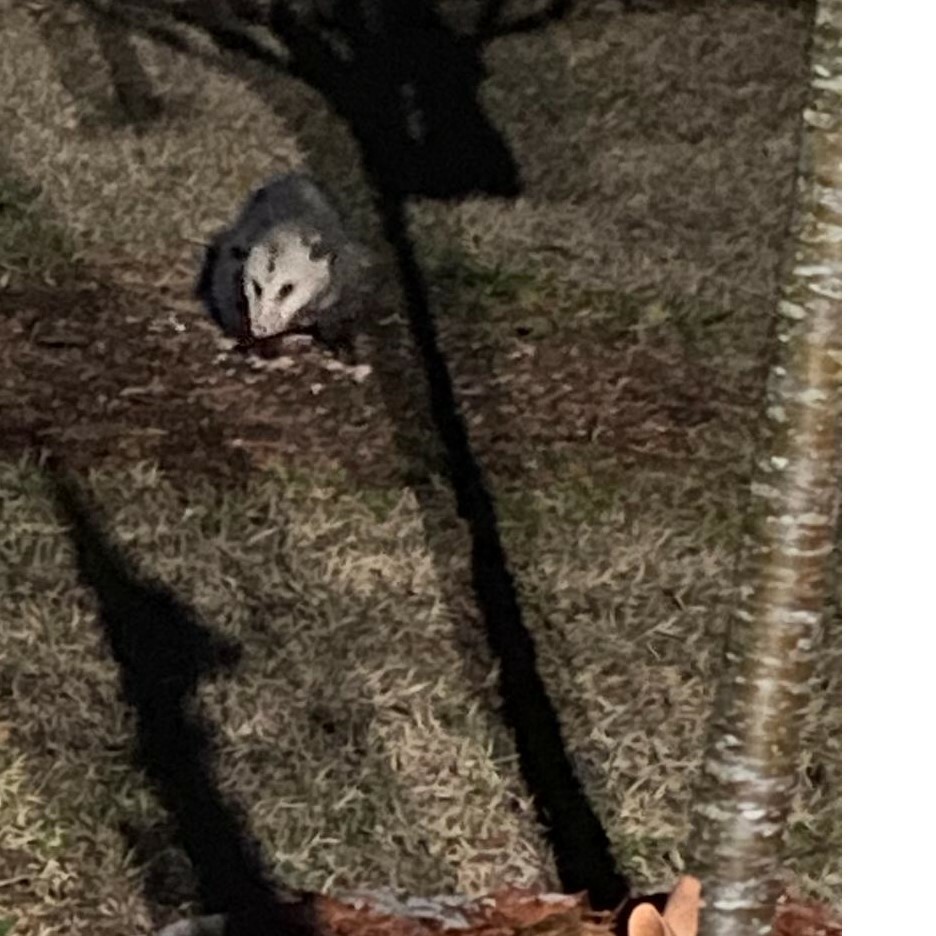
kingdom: Animalia
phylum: Chordata
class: Mammalia
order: Didelphimorphia
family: Didelphidae
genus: Didelphis
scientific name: Didelphis virginiana
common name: Virginia opossum
